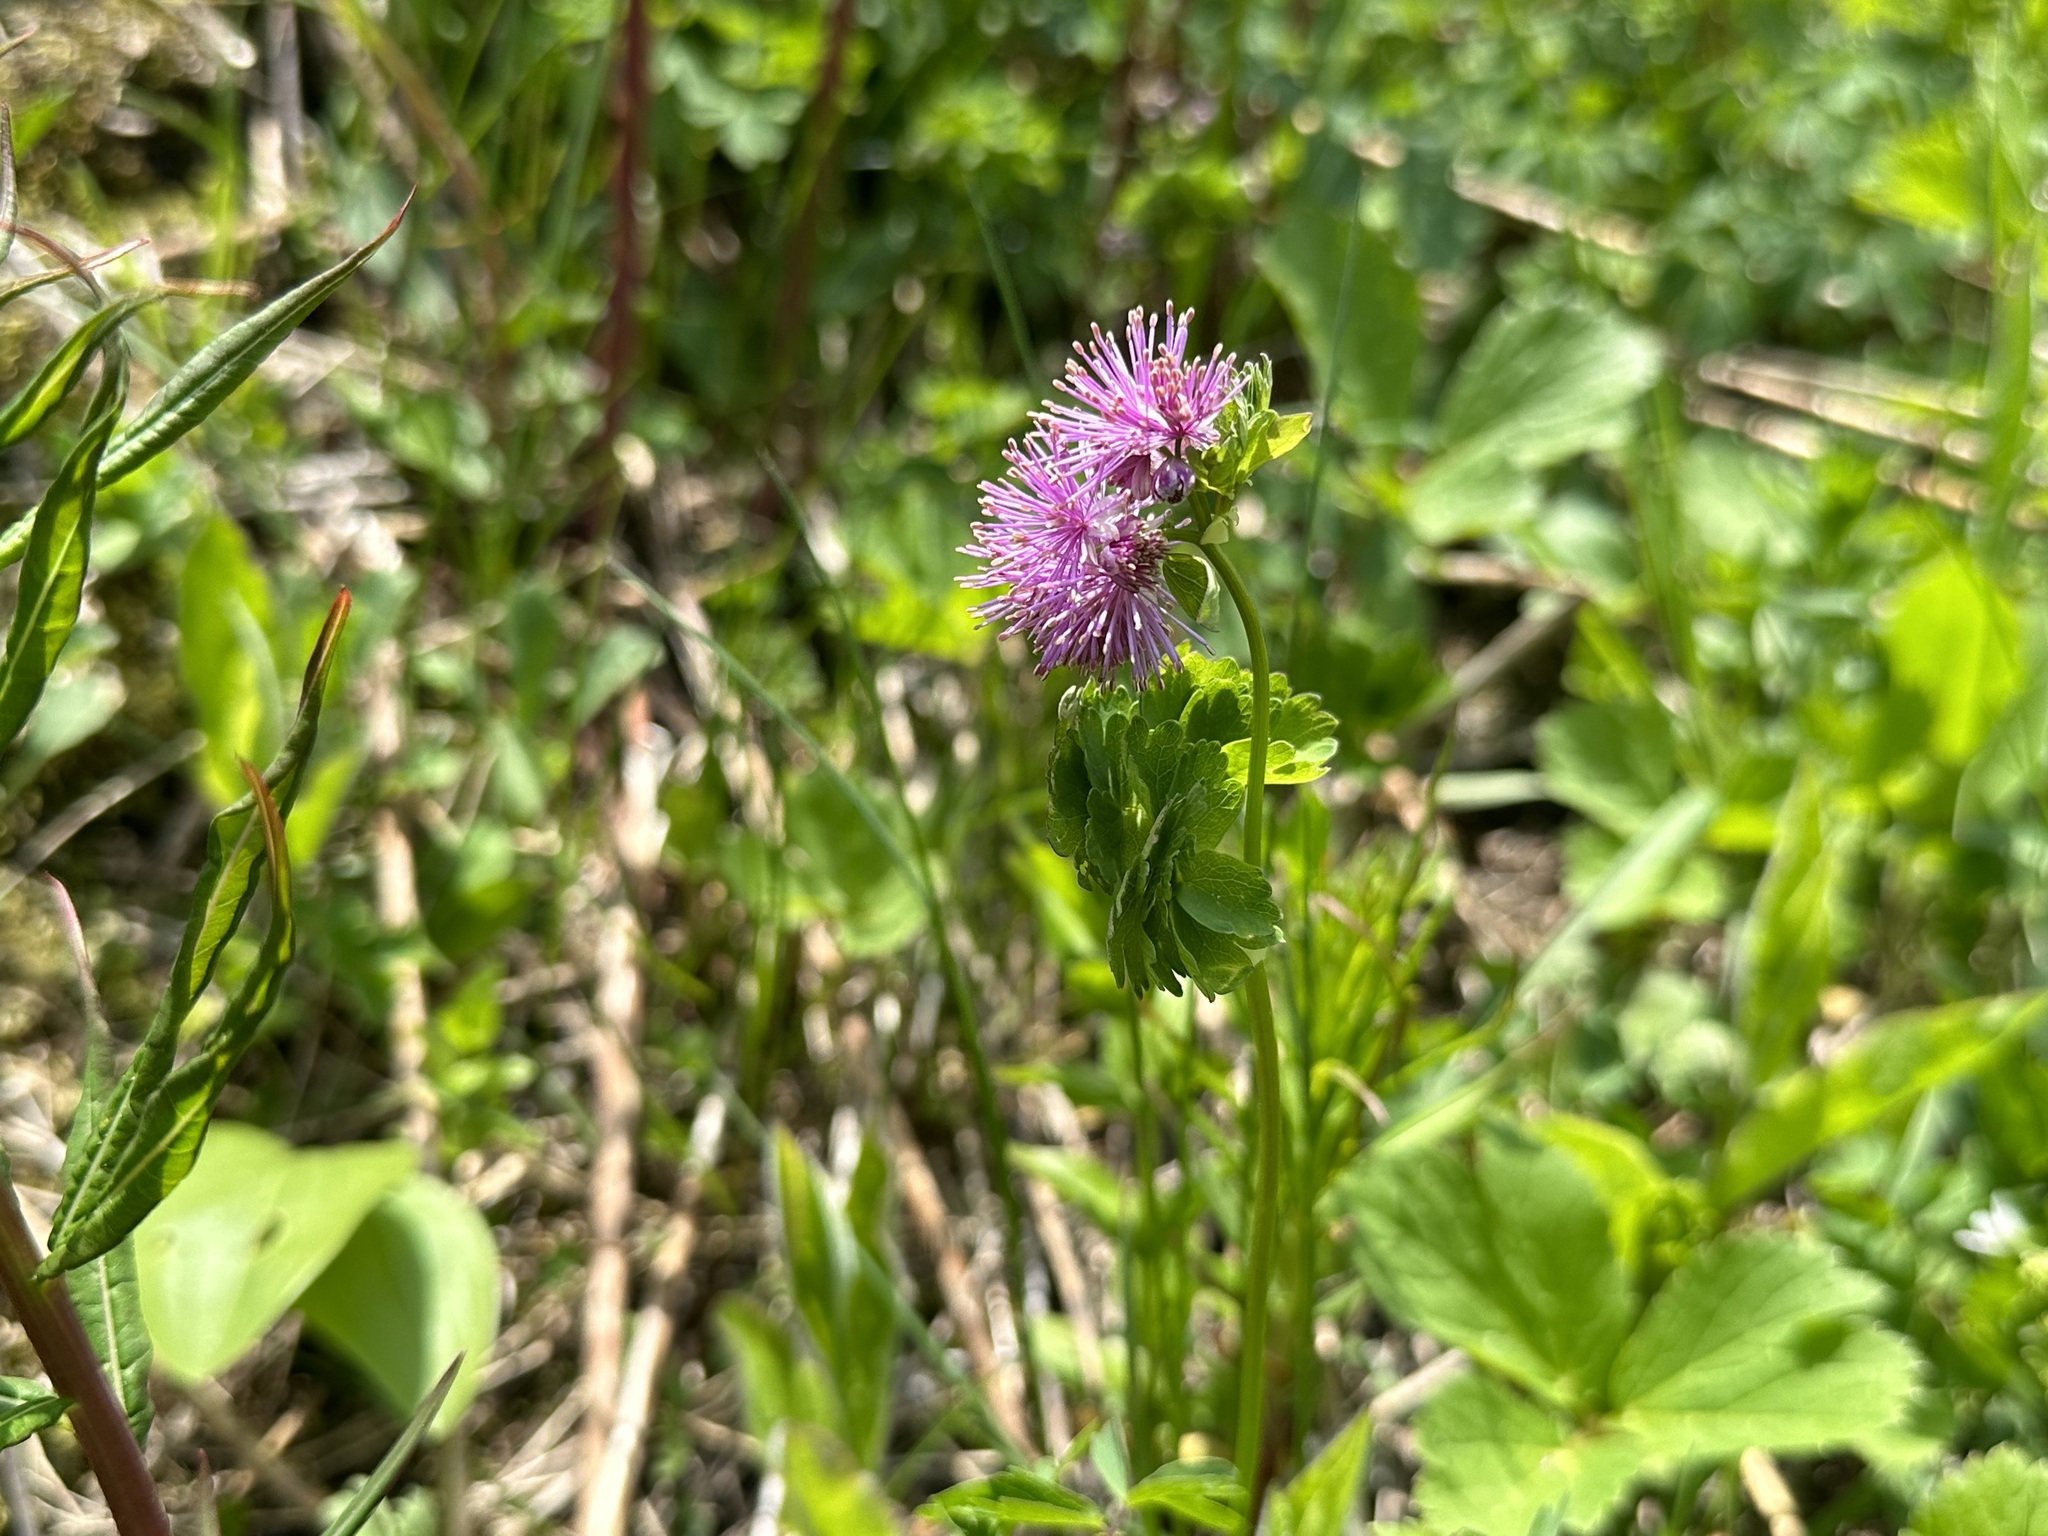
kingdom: Plantae
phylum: Tracheophyta
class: Magnoliopsida
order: Ranunculales
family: Ranunculaceae
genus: Thalictrum
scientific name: Thalictrum aquilegiifolium
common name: French meadow-rue
